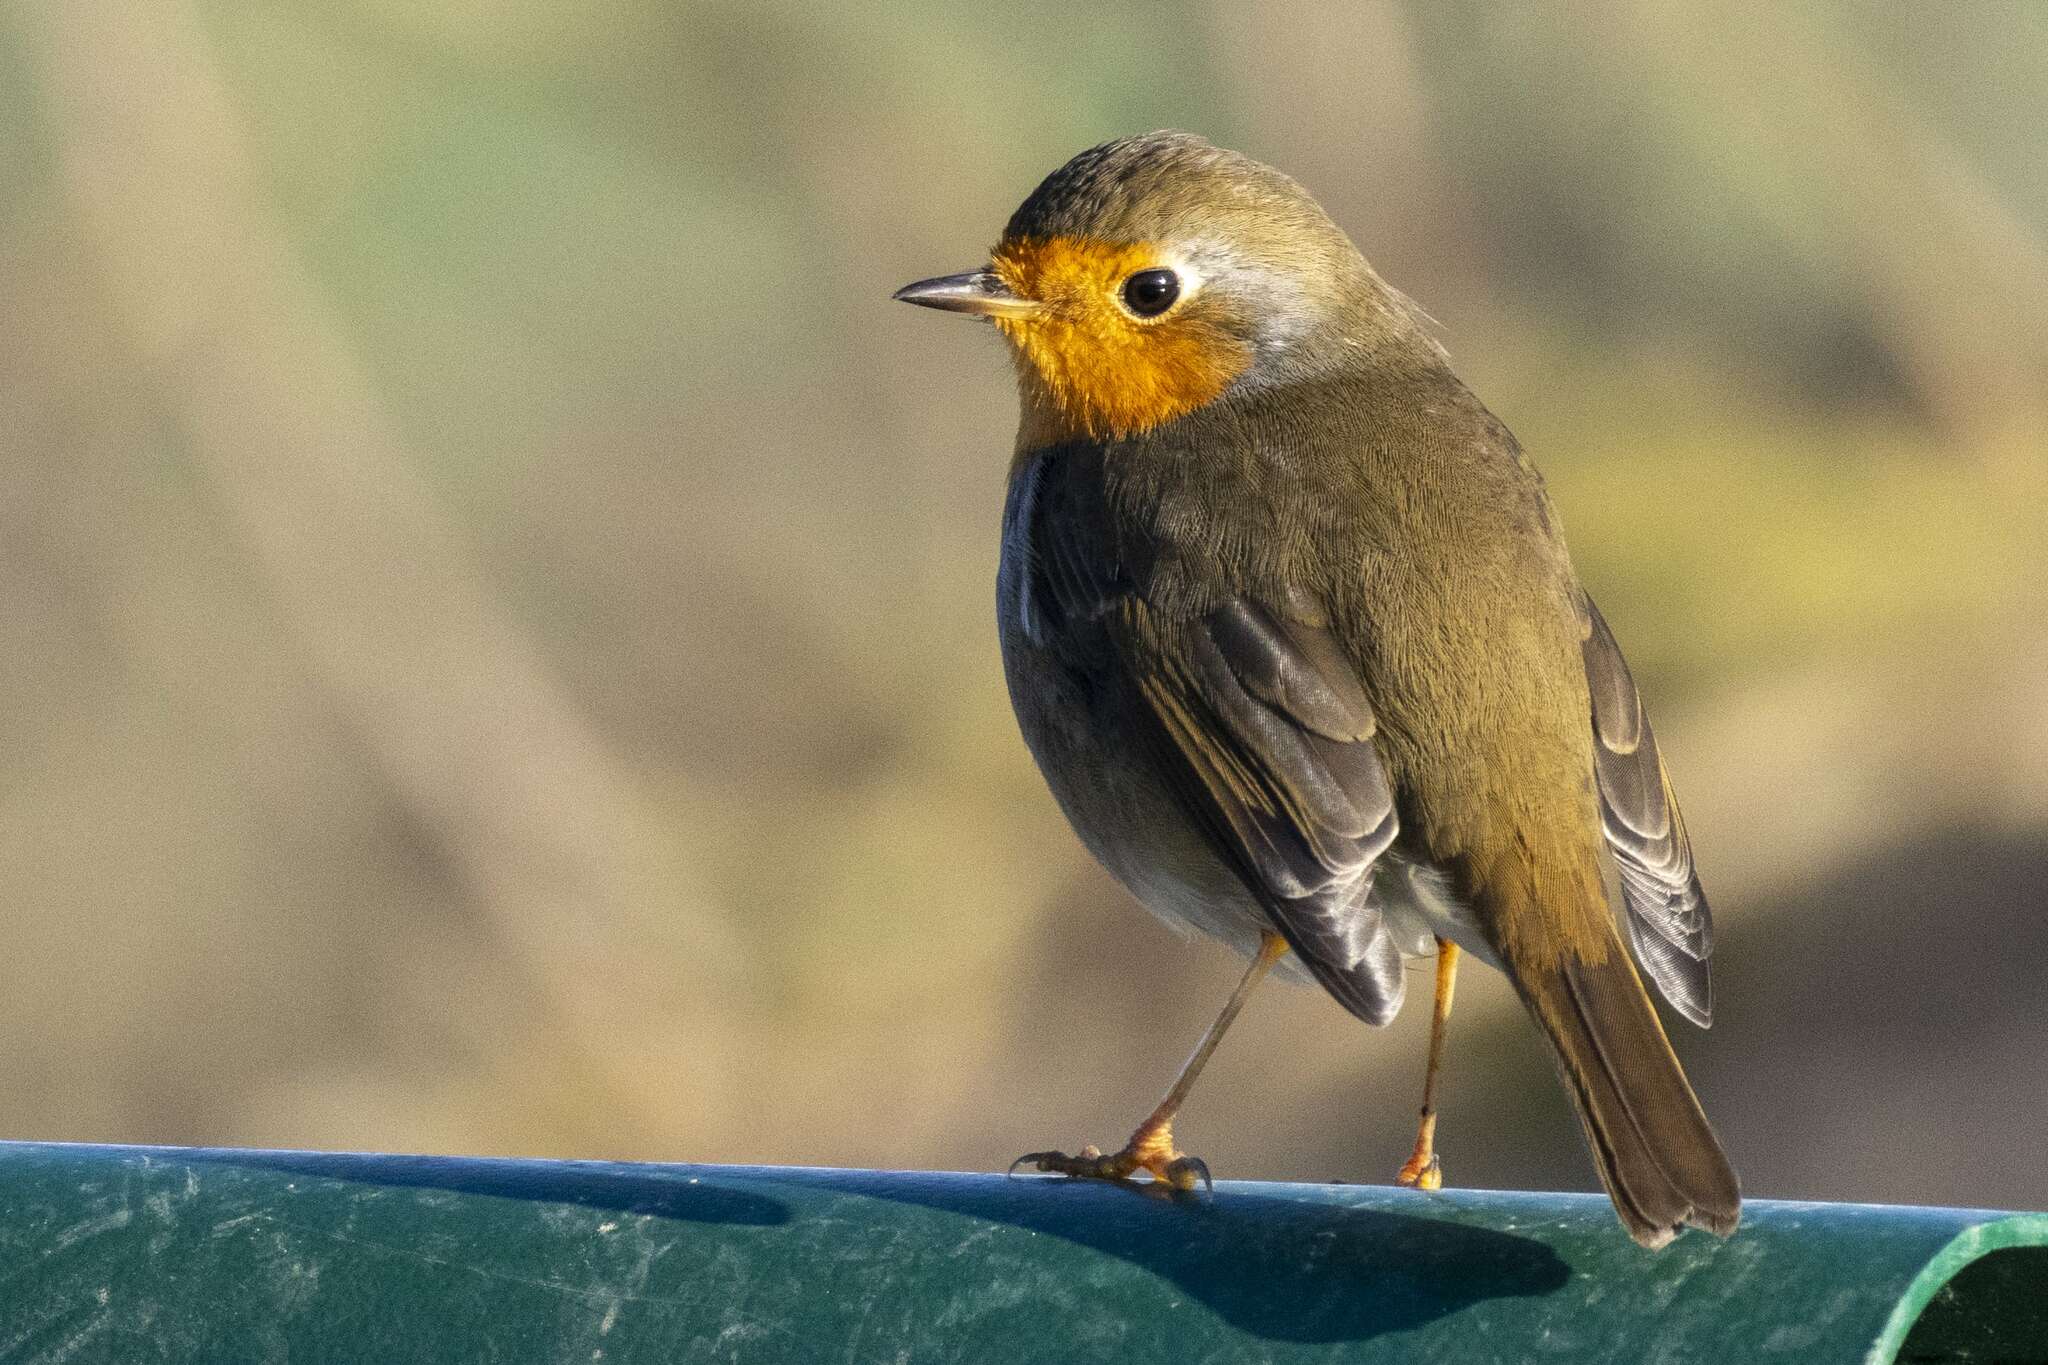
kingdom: Animalia
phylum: Chordata
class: Aves
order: Passeriformes
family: Muscicapidae
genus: Erithacus
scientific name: Erithacus rubecula
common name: European robin
